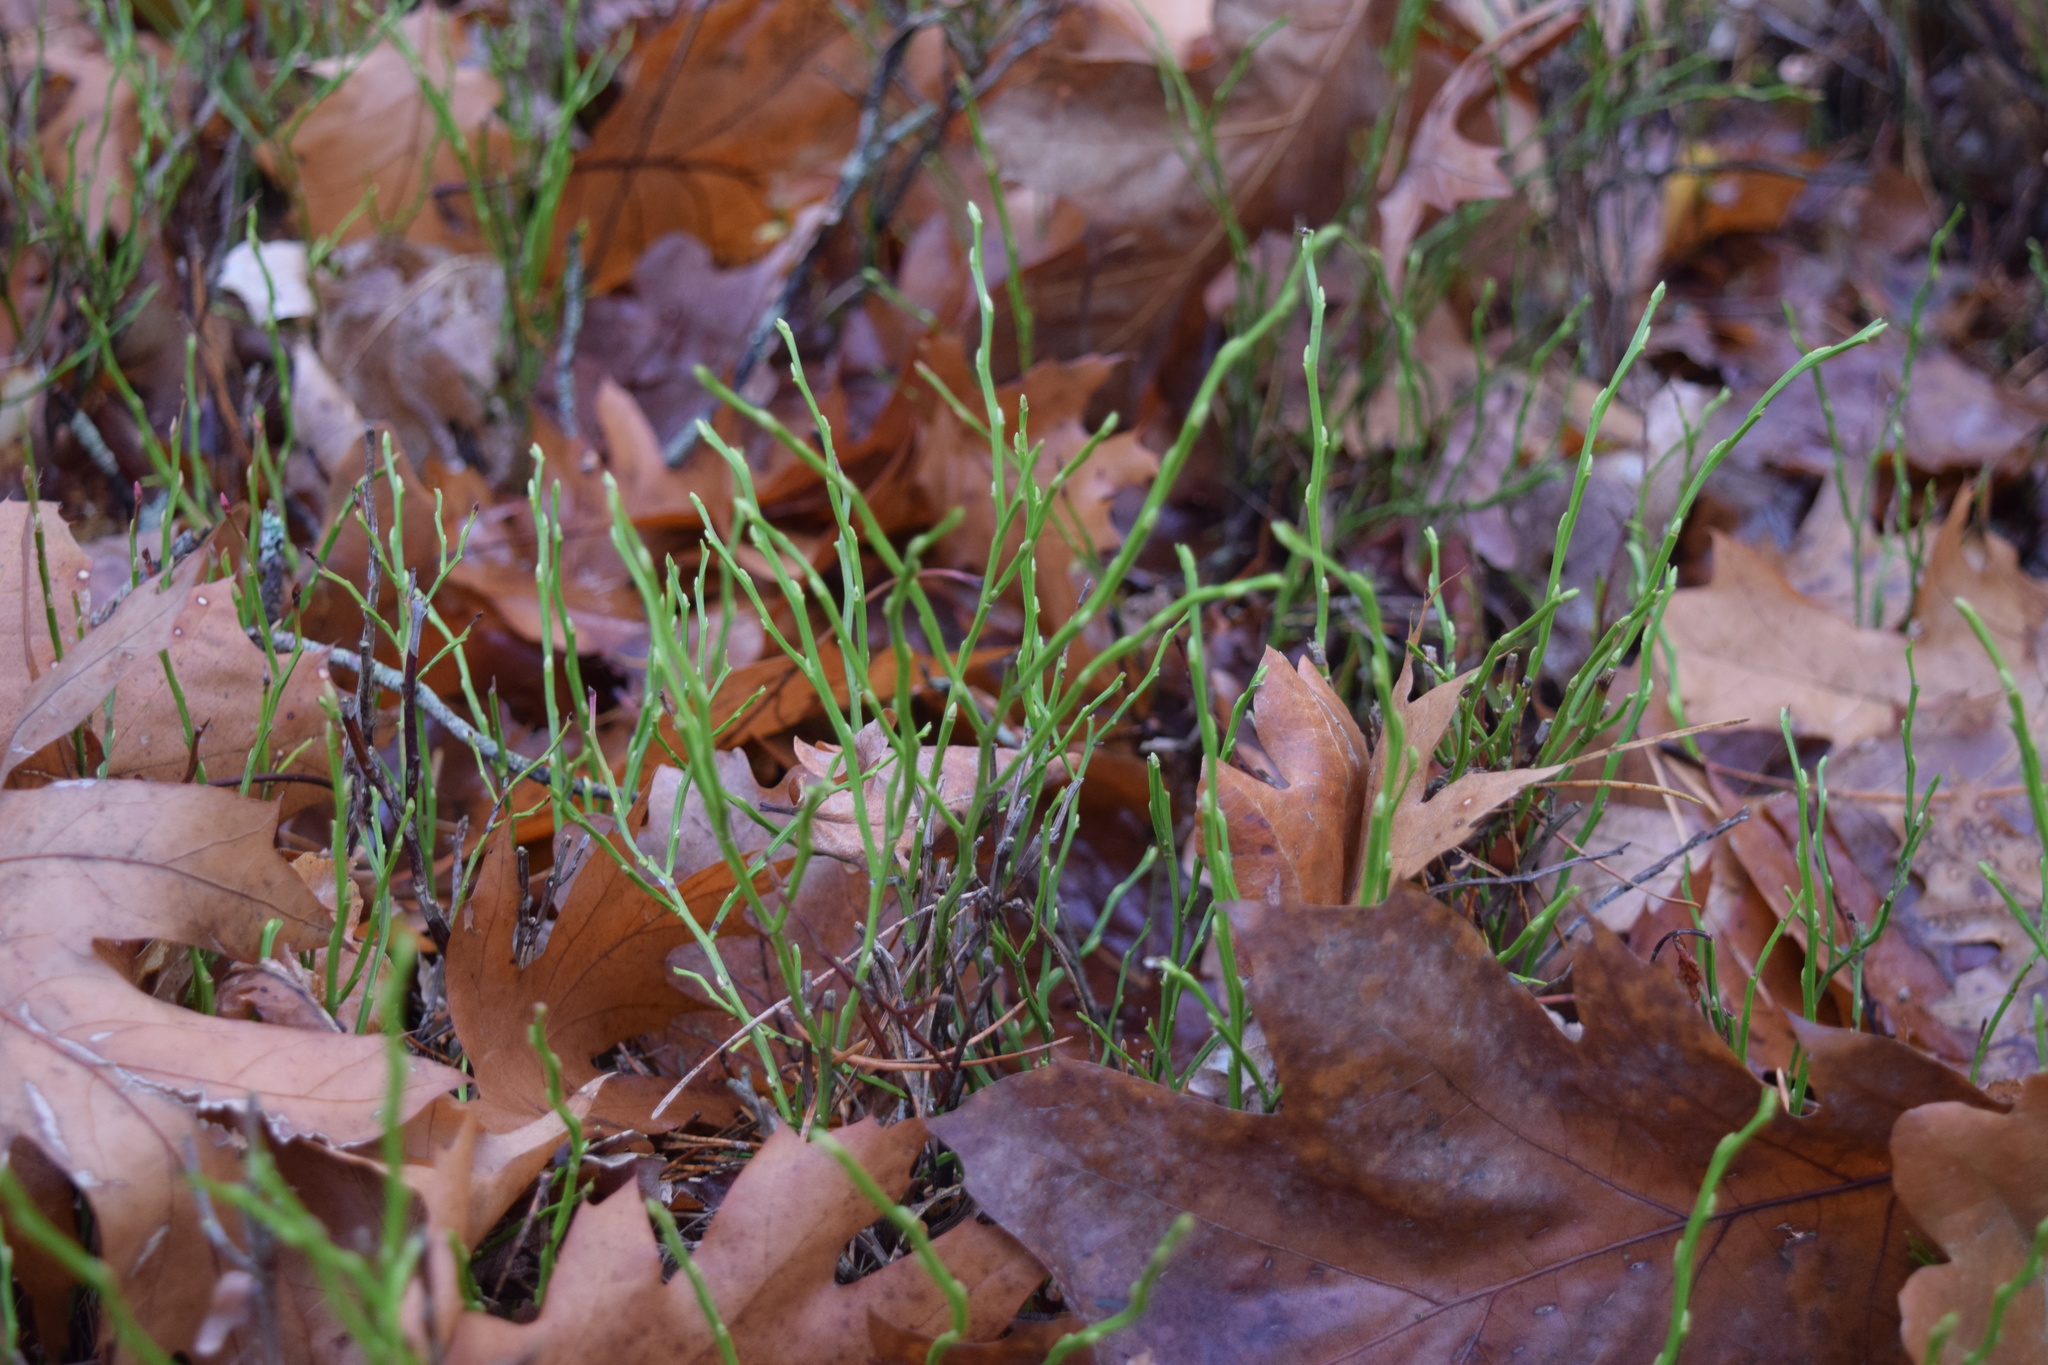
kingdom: Plantae
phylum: Tracheophyta
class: Magnoliopsida
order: Ericales
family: Ericaceae
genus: Vaccinium
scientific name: Vaccinium myrtillus
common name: Bilberry
